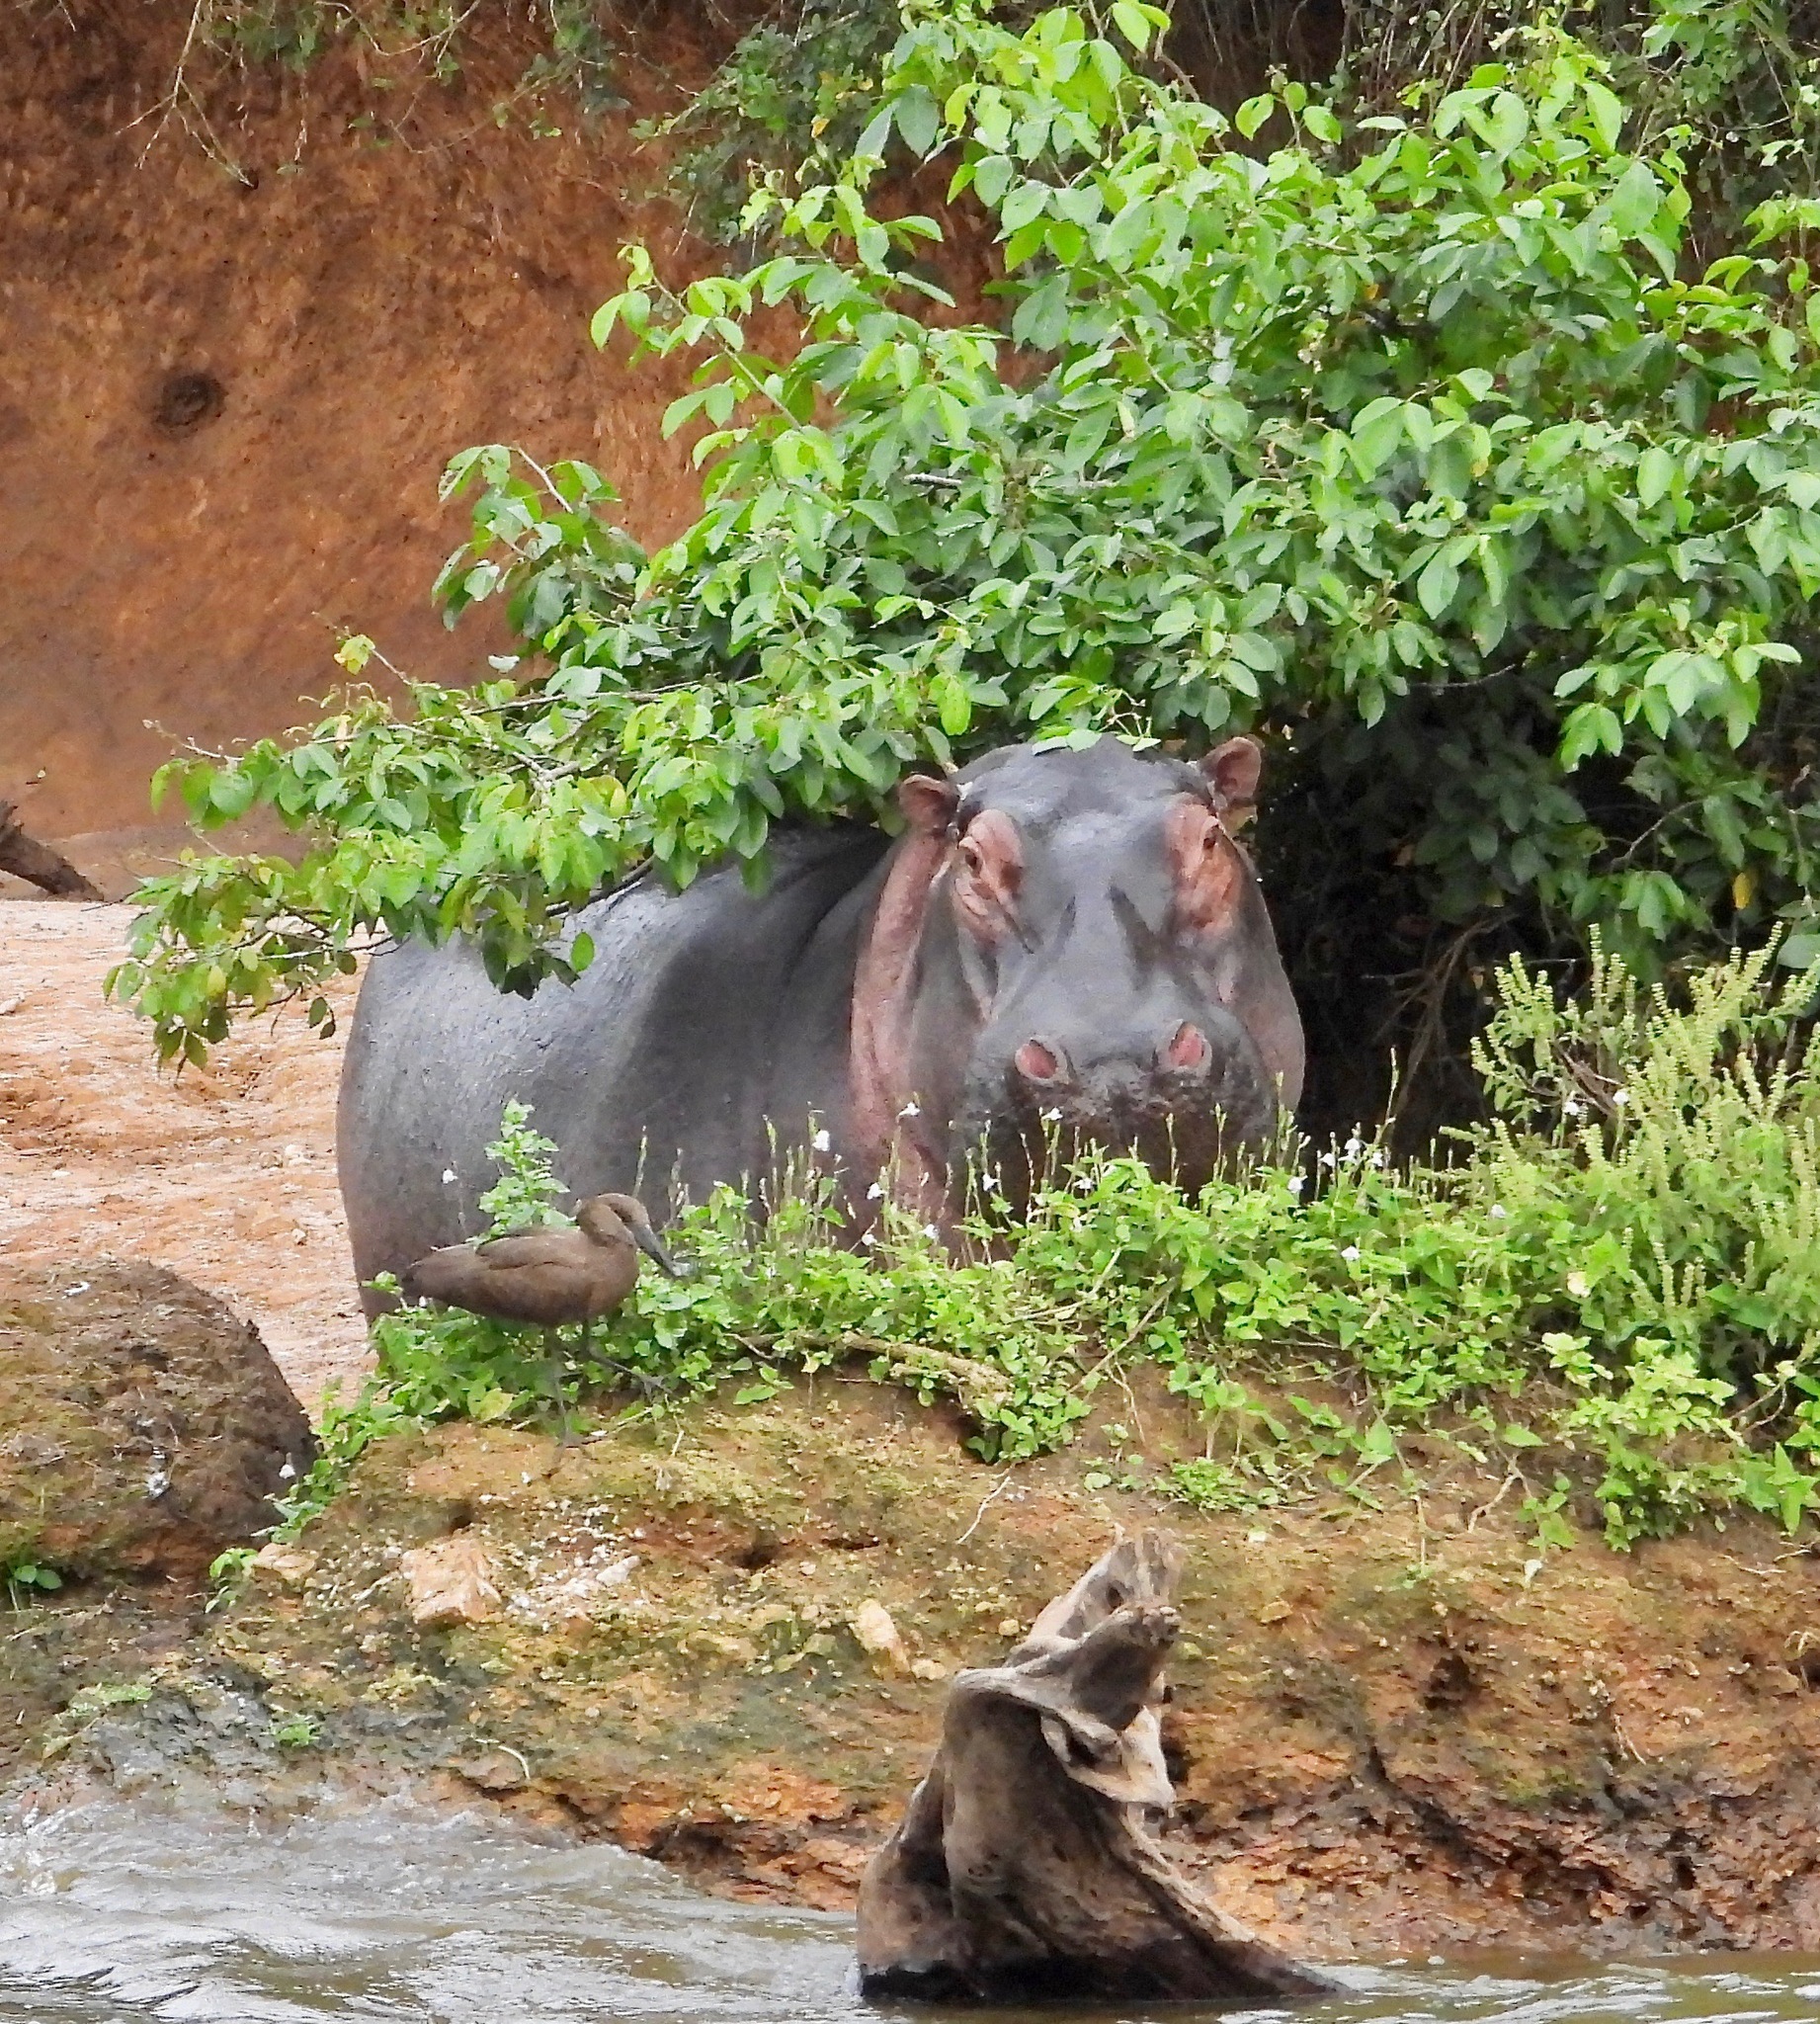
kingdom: Animalia
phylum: Chordata
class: Mammalia
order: Artiodactyla
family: Hippopotamidae
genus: Hippopotamus
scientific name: Hippopotamus amphibius
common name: Common hippopotamus
